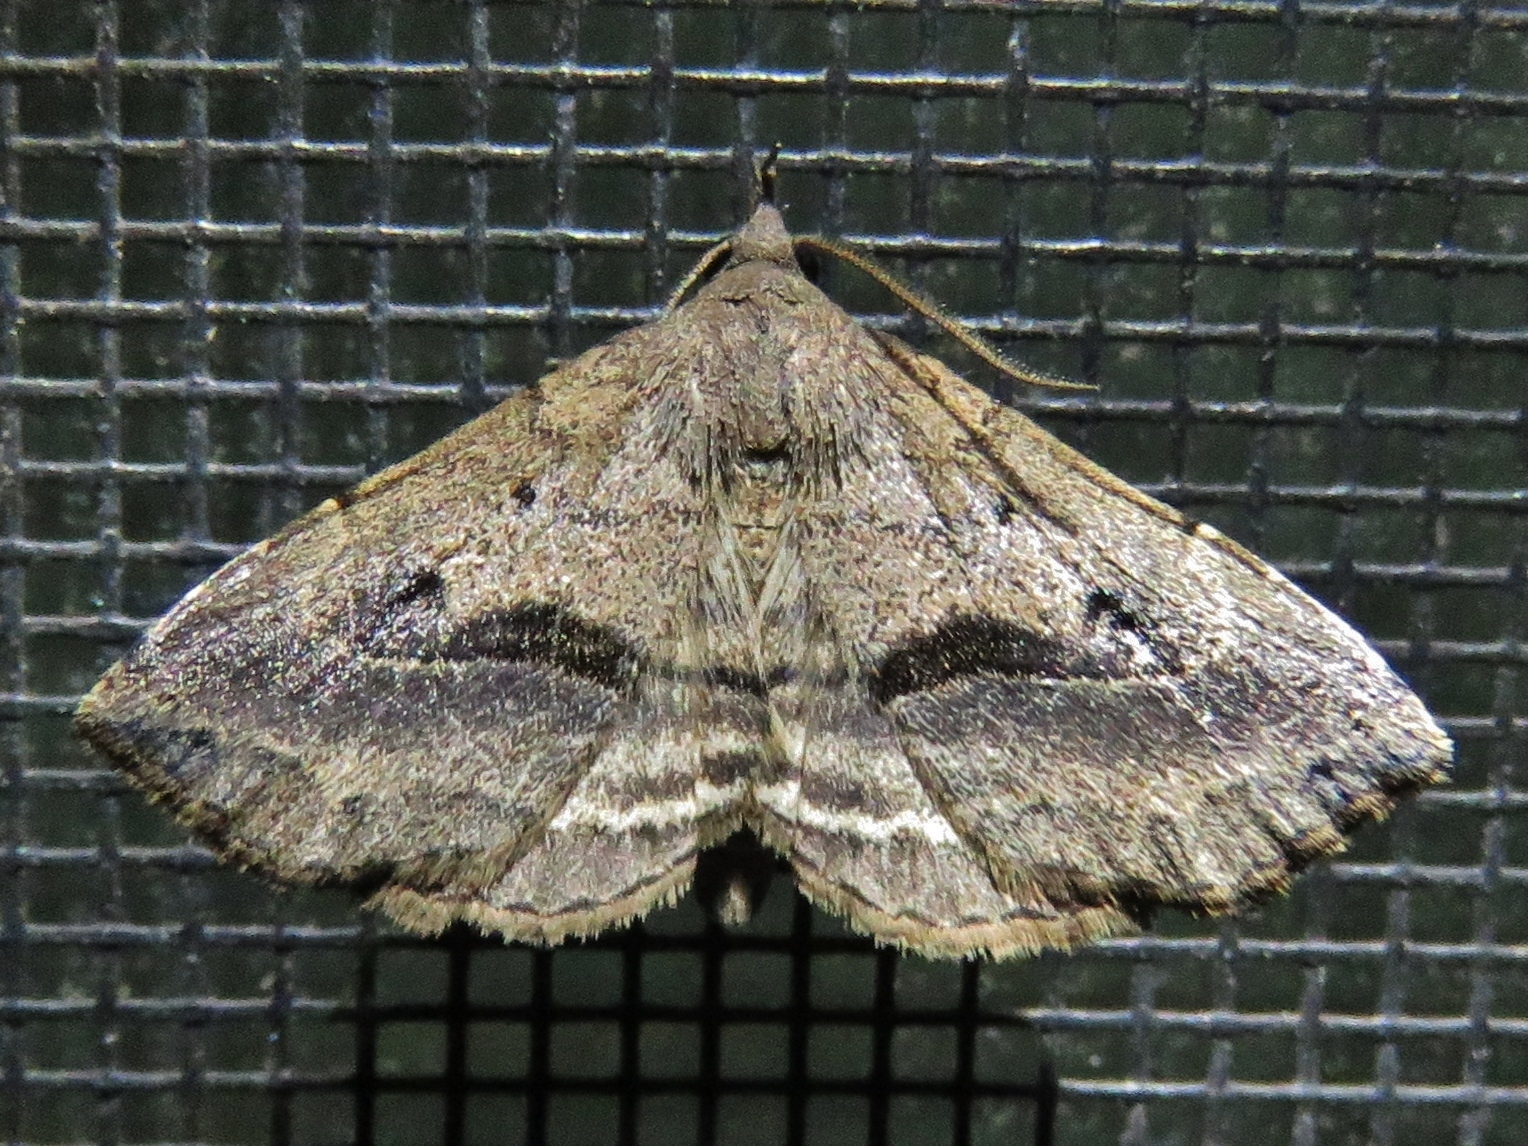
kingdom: Animalia
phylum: Arthropoda
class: Insecta
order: Lepidoptera
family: Erebidae
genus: Spargaloma
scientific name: Spargaloma perditalis
